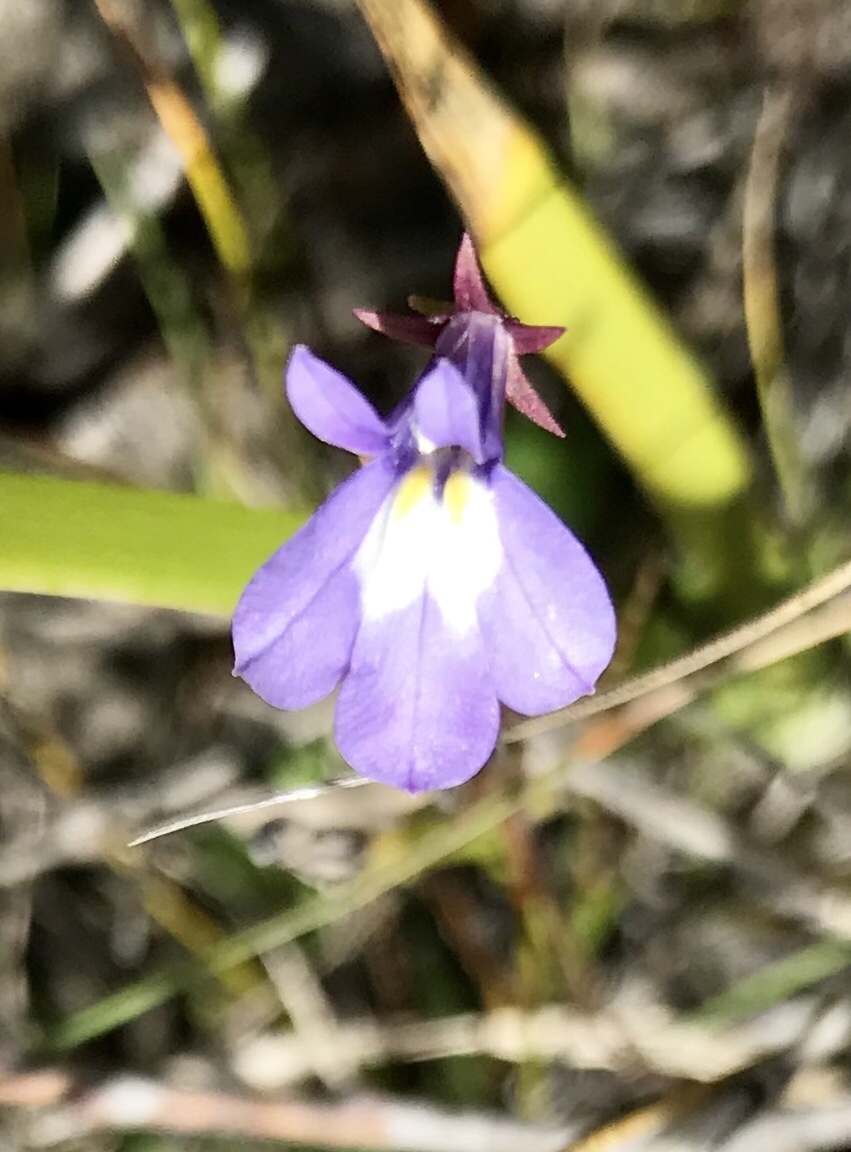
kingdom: Plantae
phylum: Tracheophyta
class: Magnoliopsida
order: Asterales
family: Campanulaceae
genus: Lobelia
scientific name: Lobelia kalmii
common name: Kalm's lobelia
